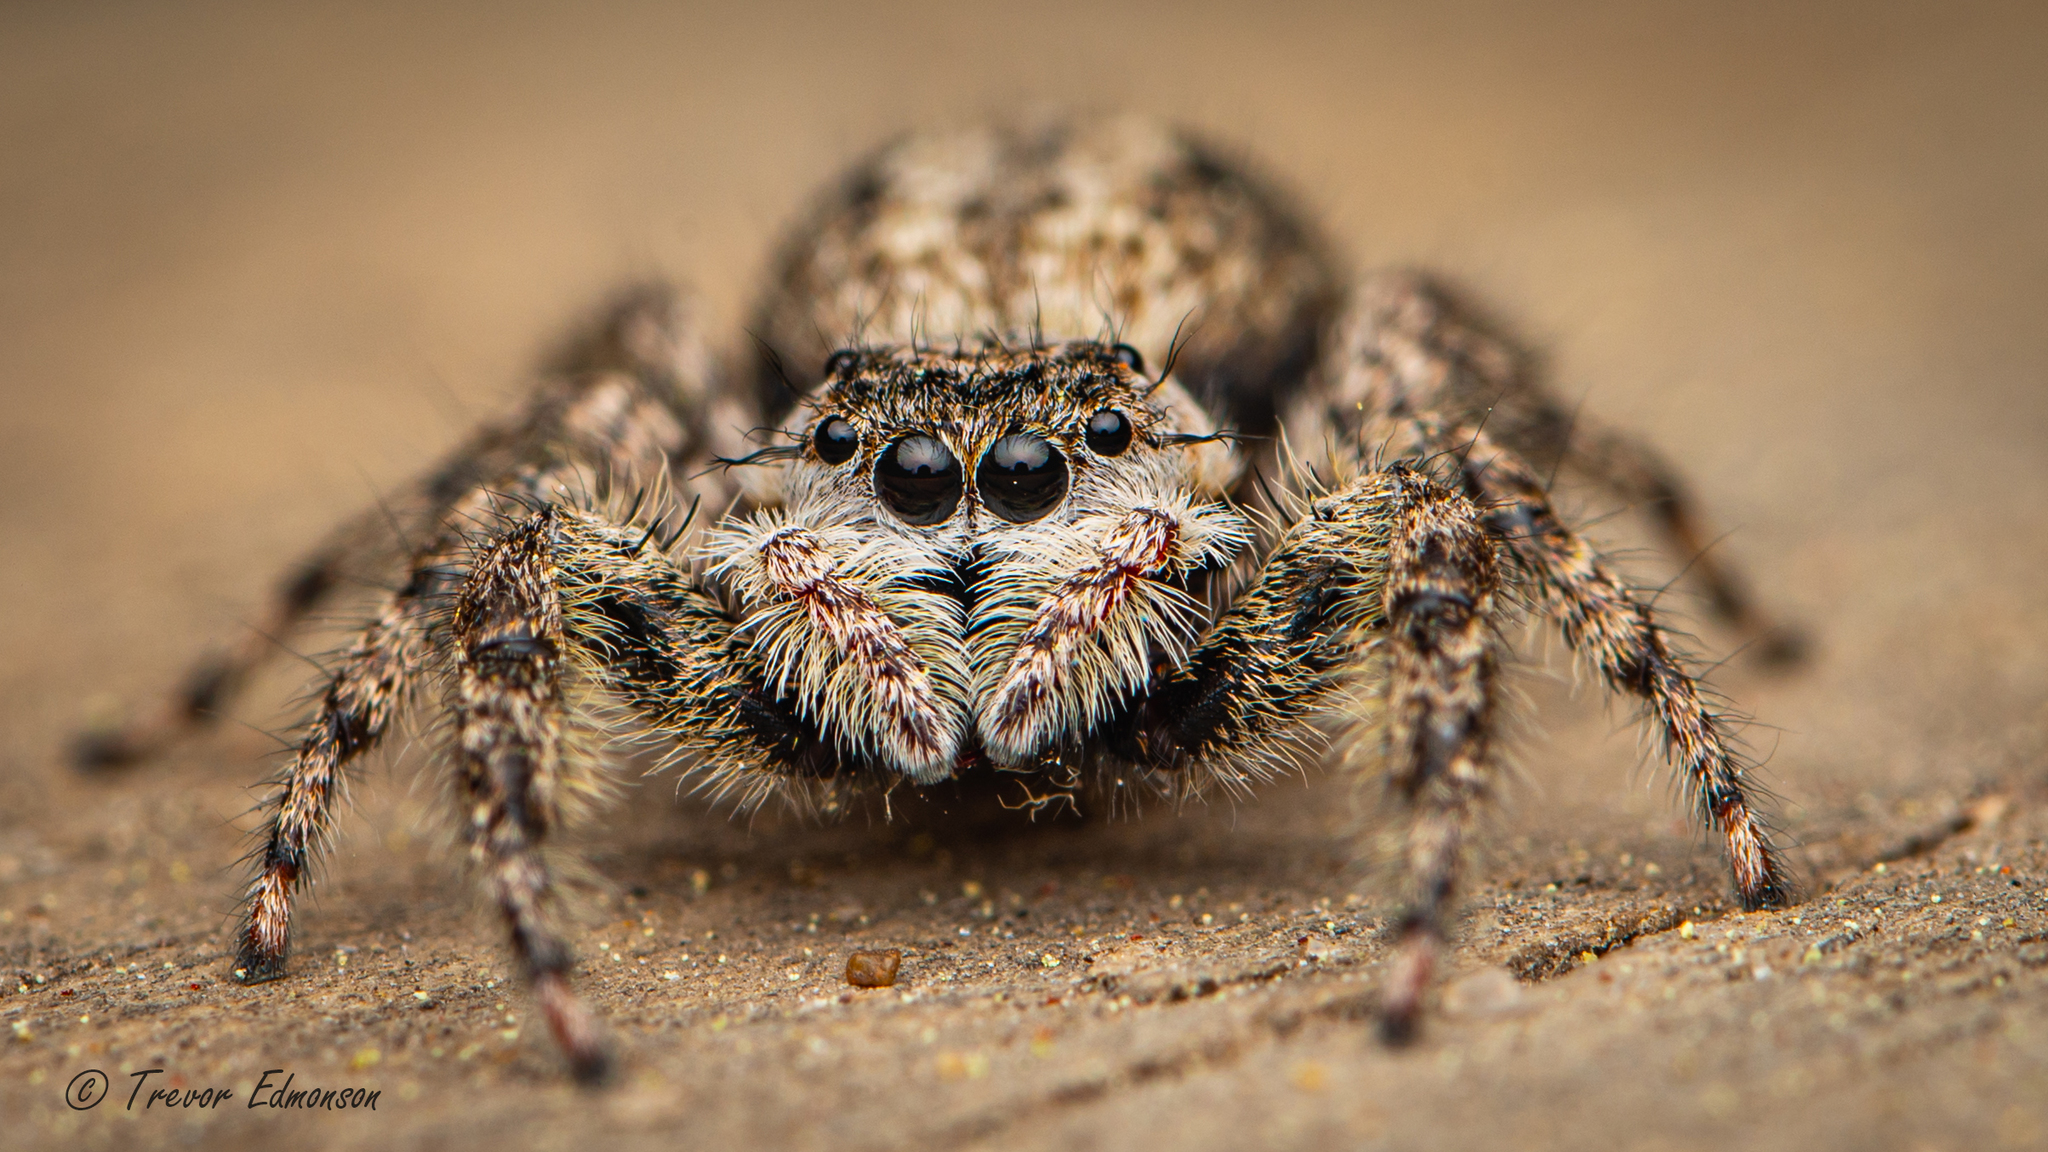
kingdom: Animalia
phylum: Arthropoda
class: Arachnida
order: Araneae
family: Salticidae
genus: Platycryptus
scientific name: Platycryptus undatus
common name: Tan jumping spider
